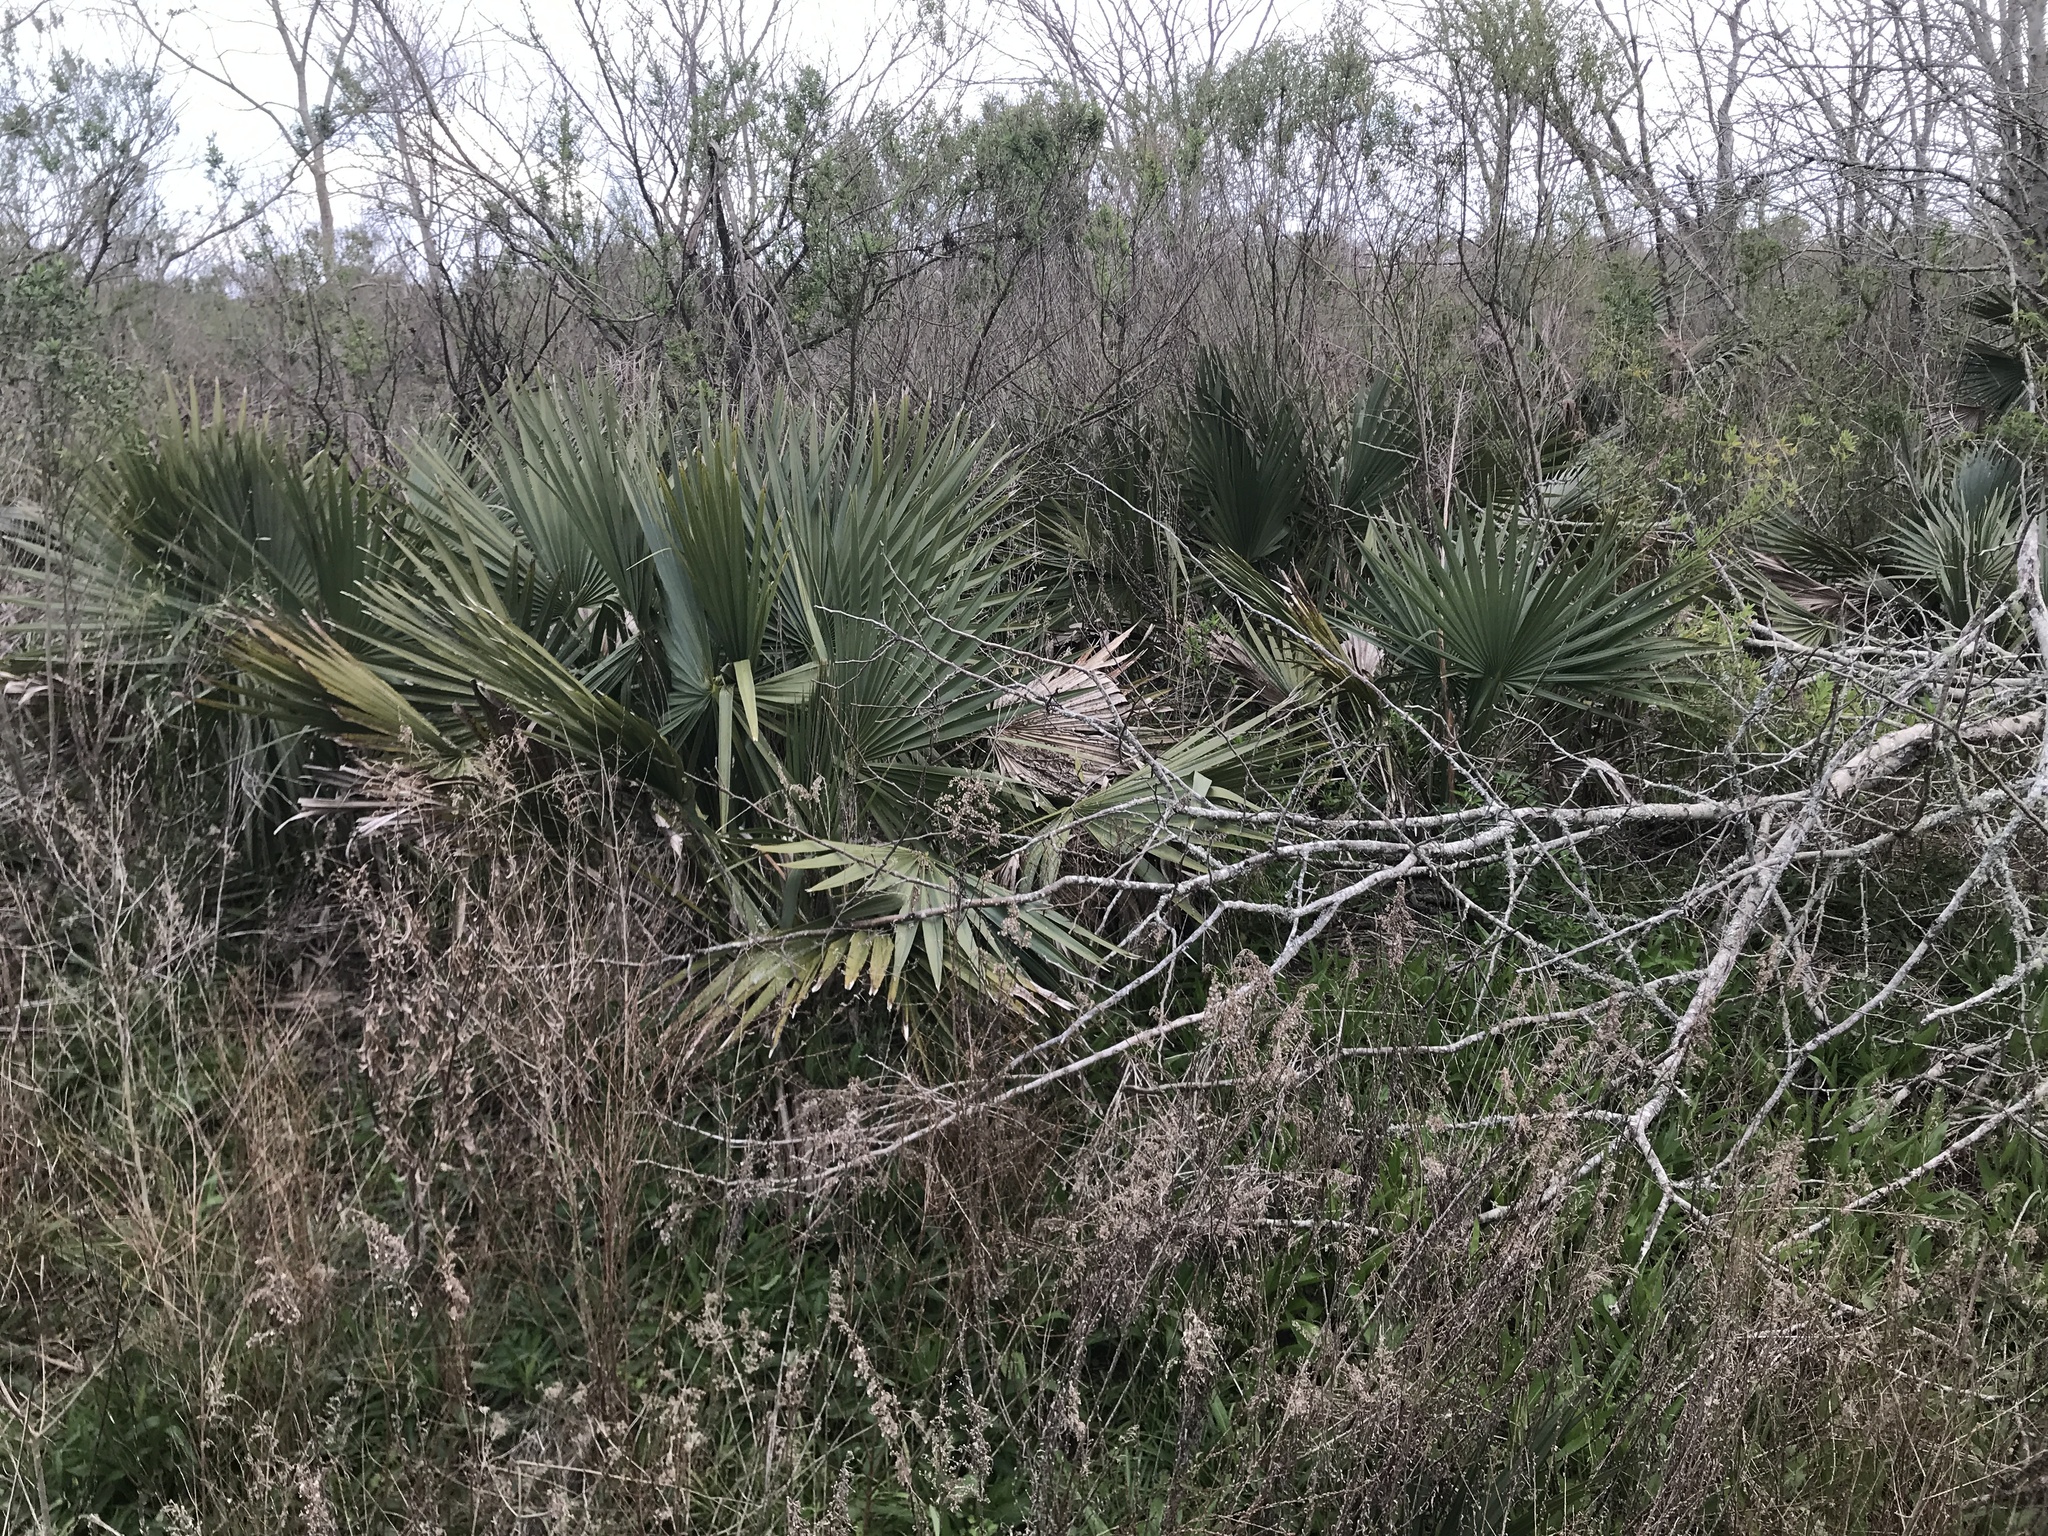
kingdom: Plantae
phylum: Tracheophyta
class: Liliopsida
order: Arecales
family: Arecaceae
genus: Sabal
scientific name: Sabal minor
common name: Dwarf palmetto
